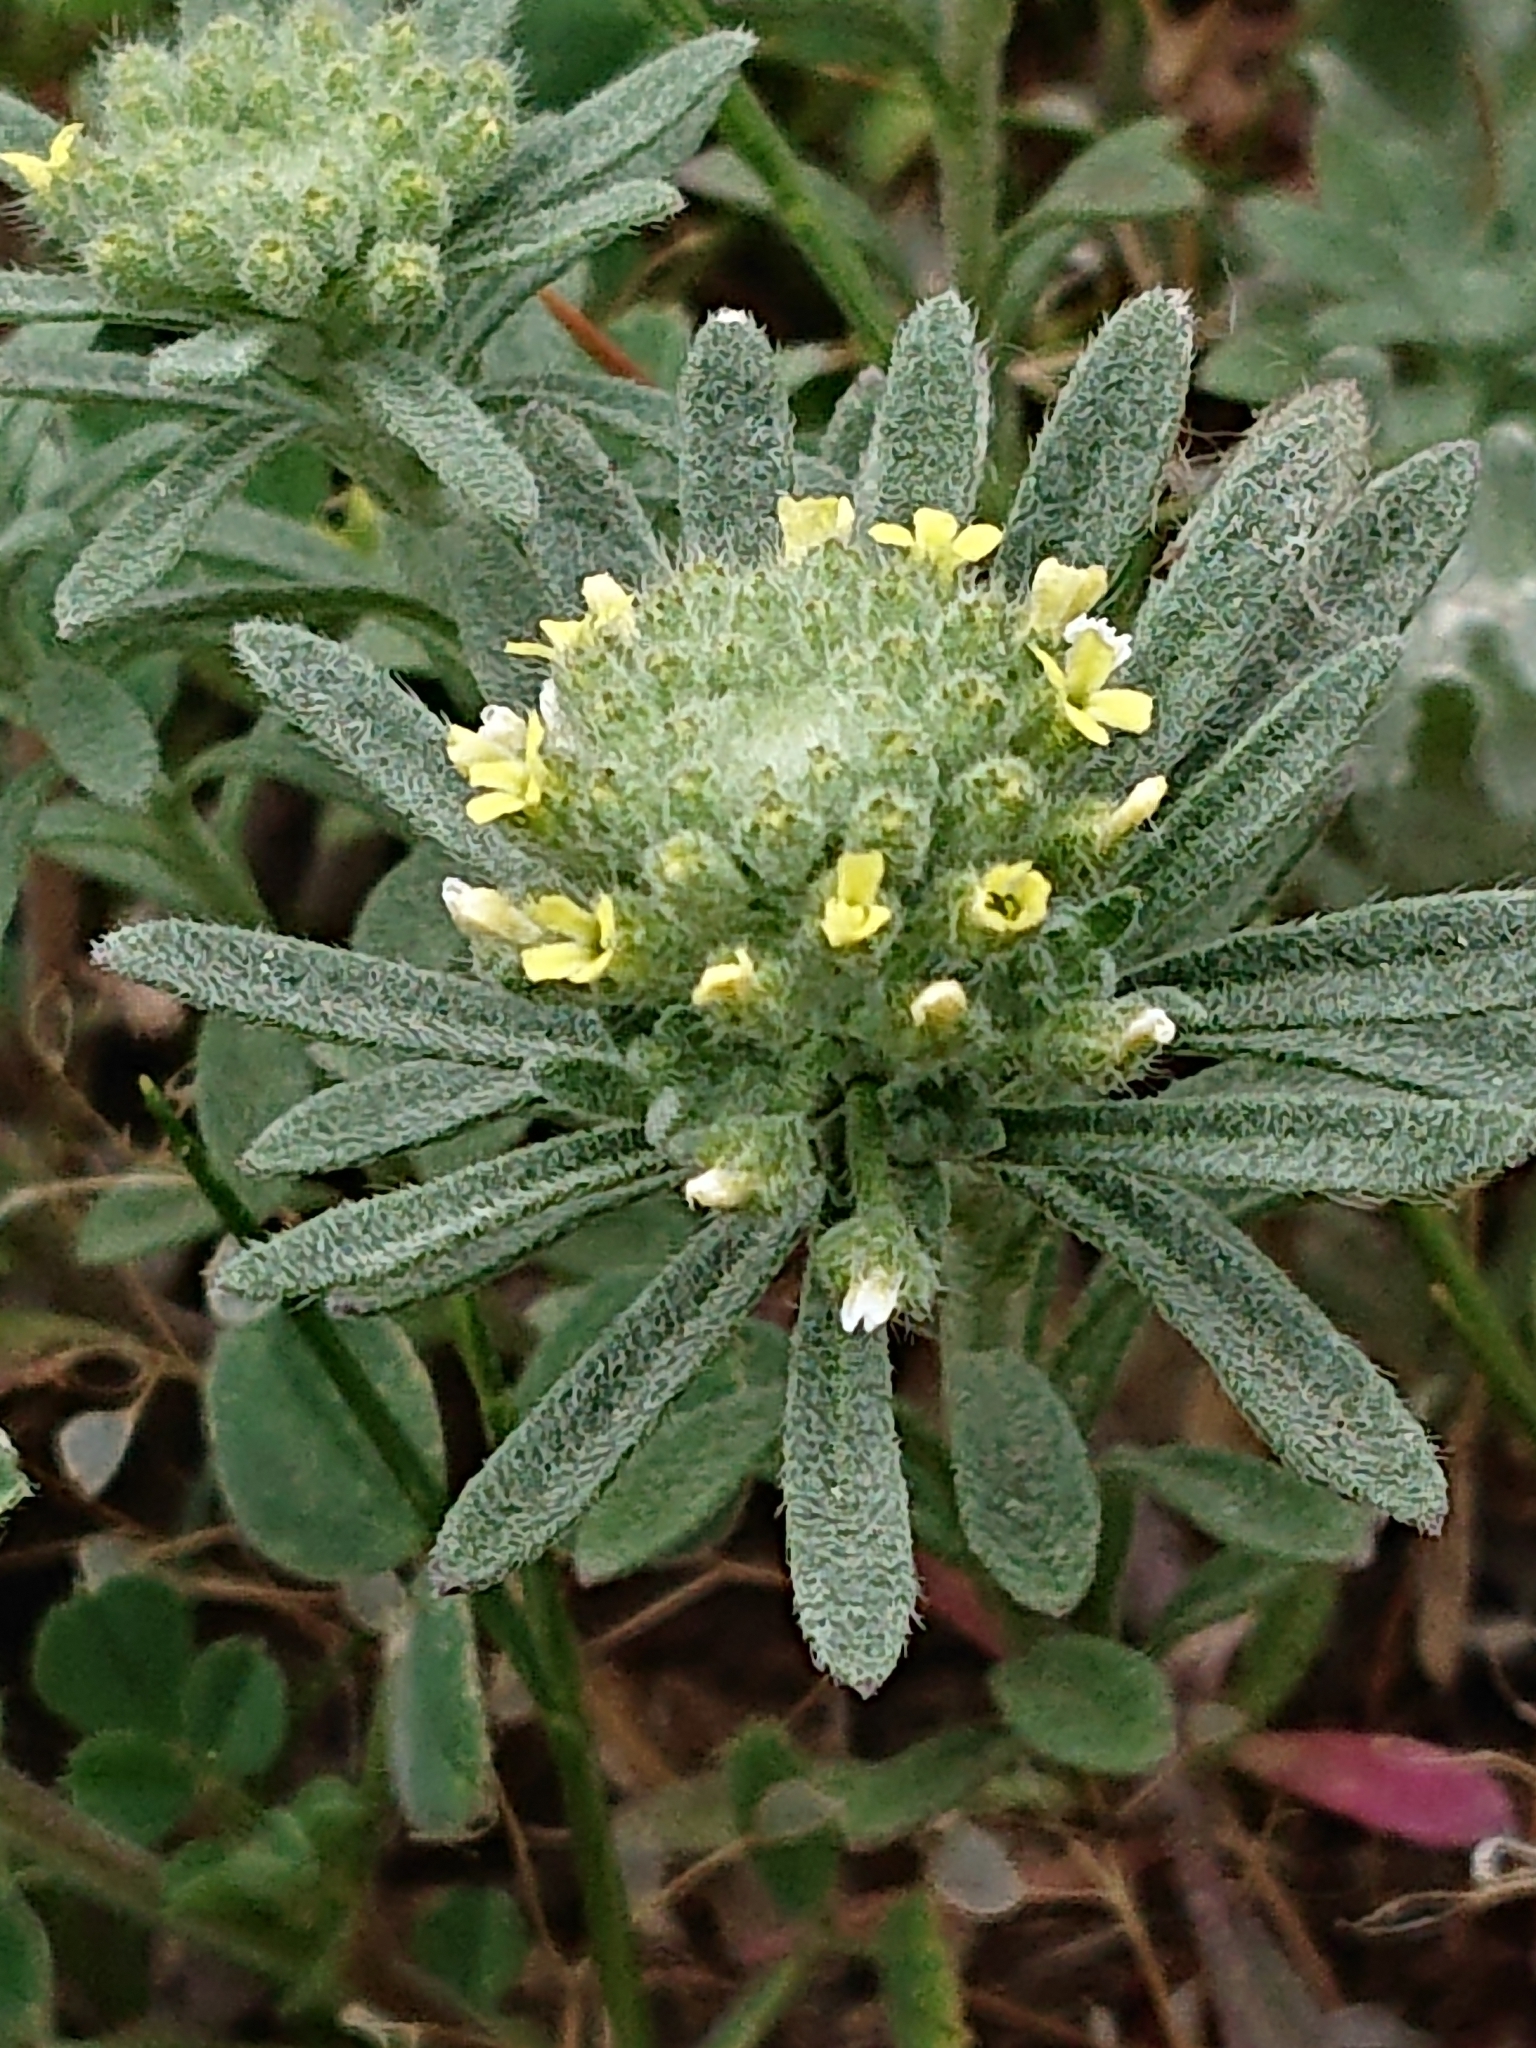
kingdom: Plantae
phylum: Tracheophyta
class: Magnoliopsida
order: Brassicales
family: Brassicaceae
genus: Alyssum
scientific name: Alyssum alyssoides
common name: Small alison
